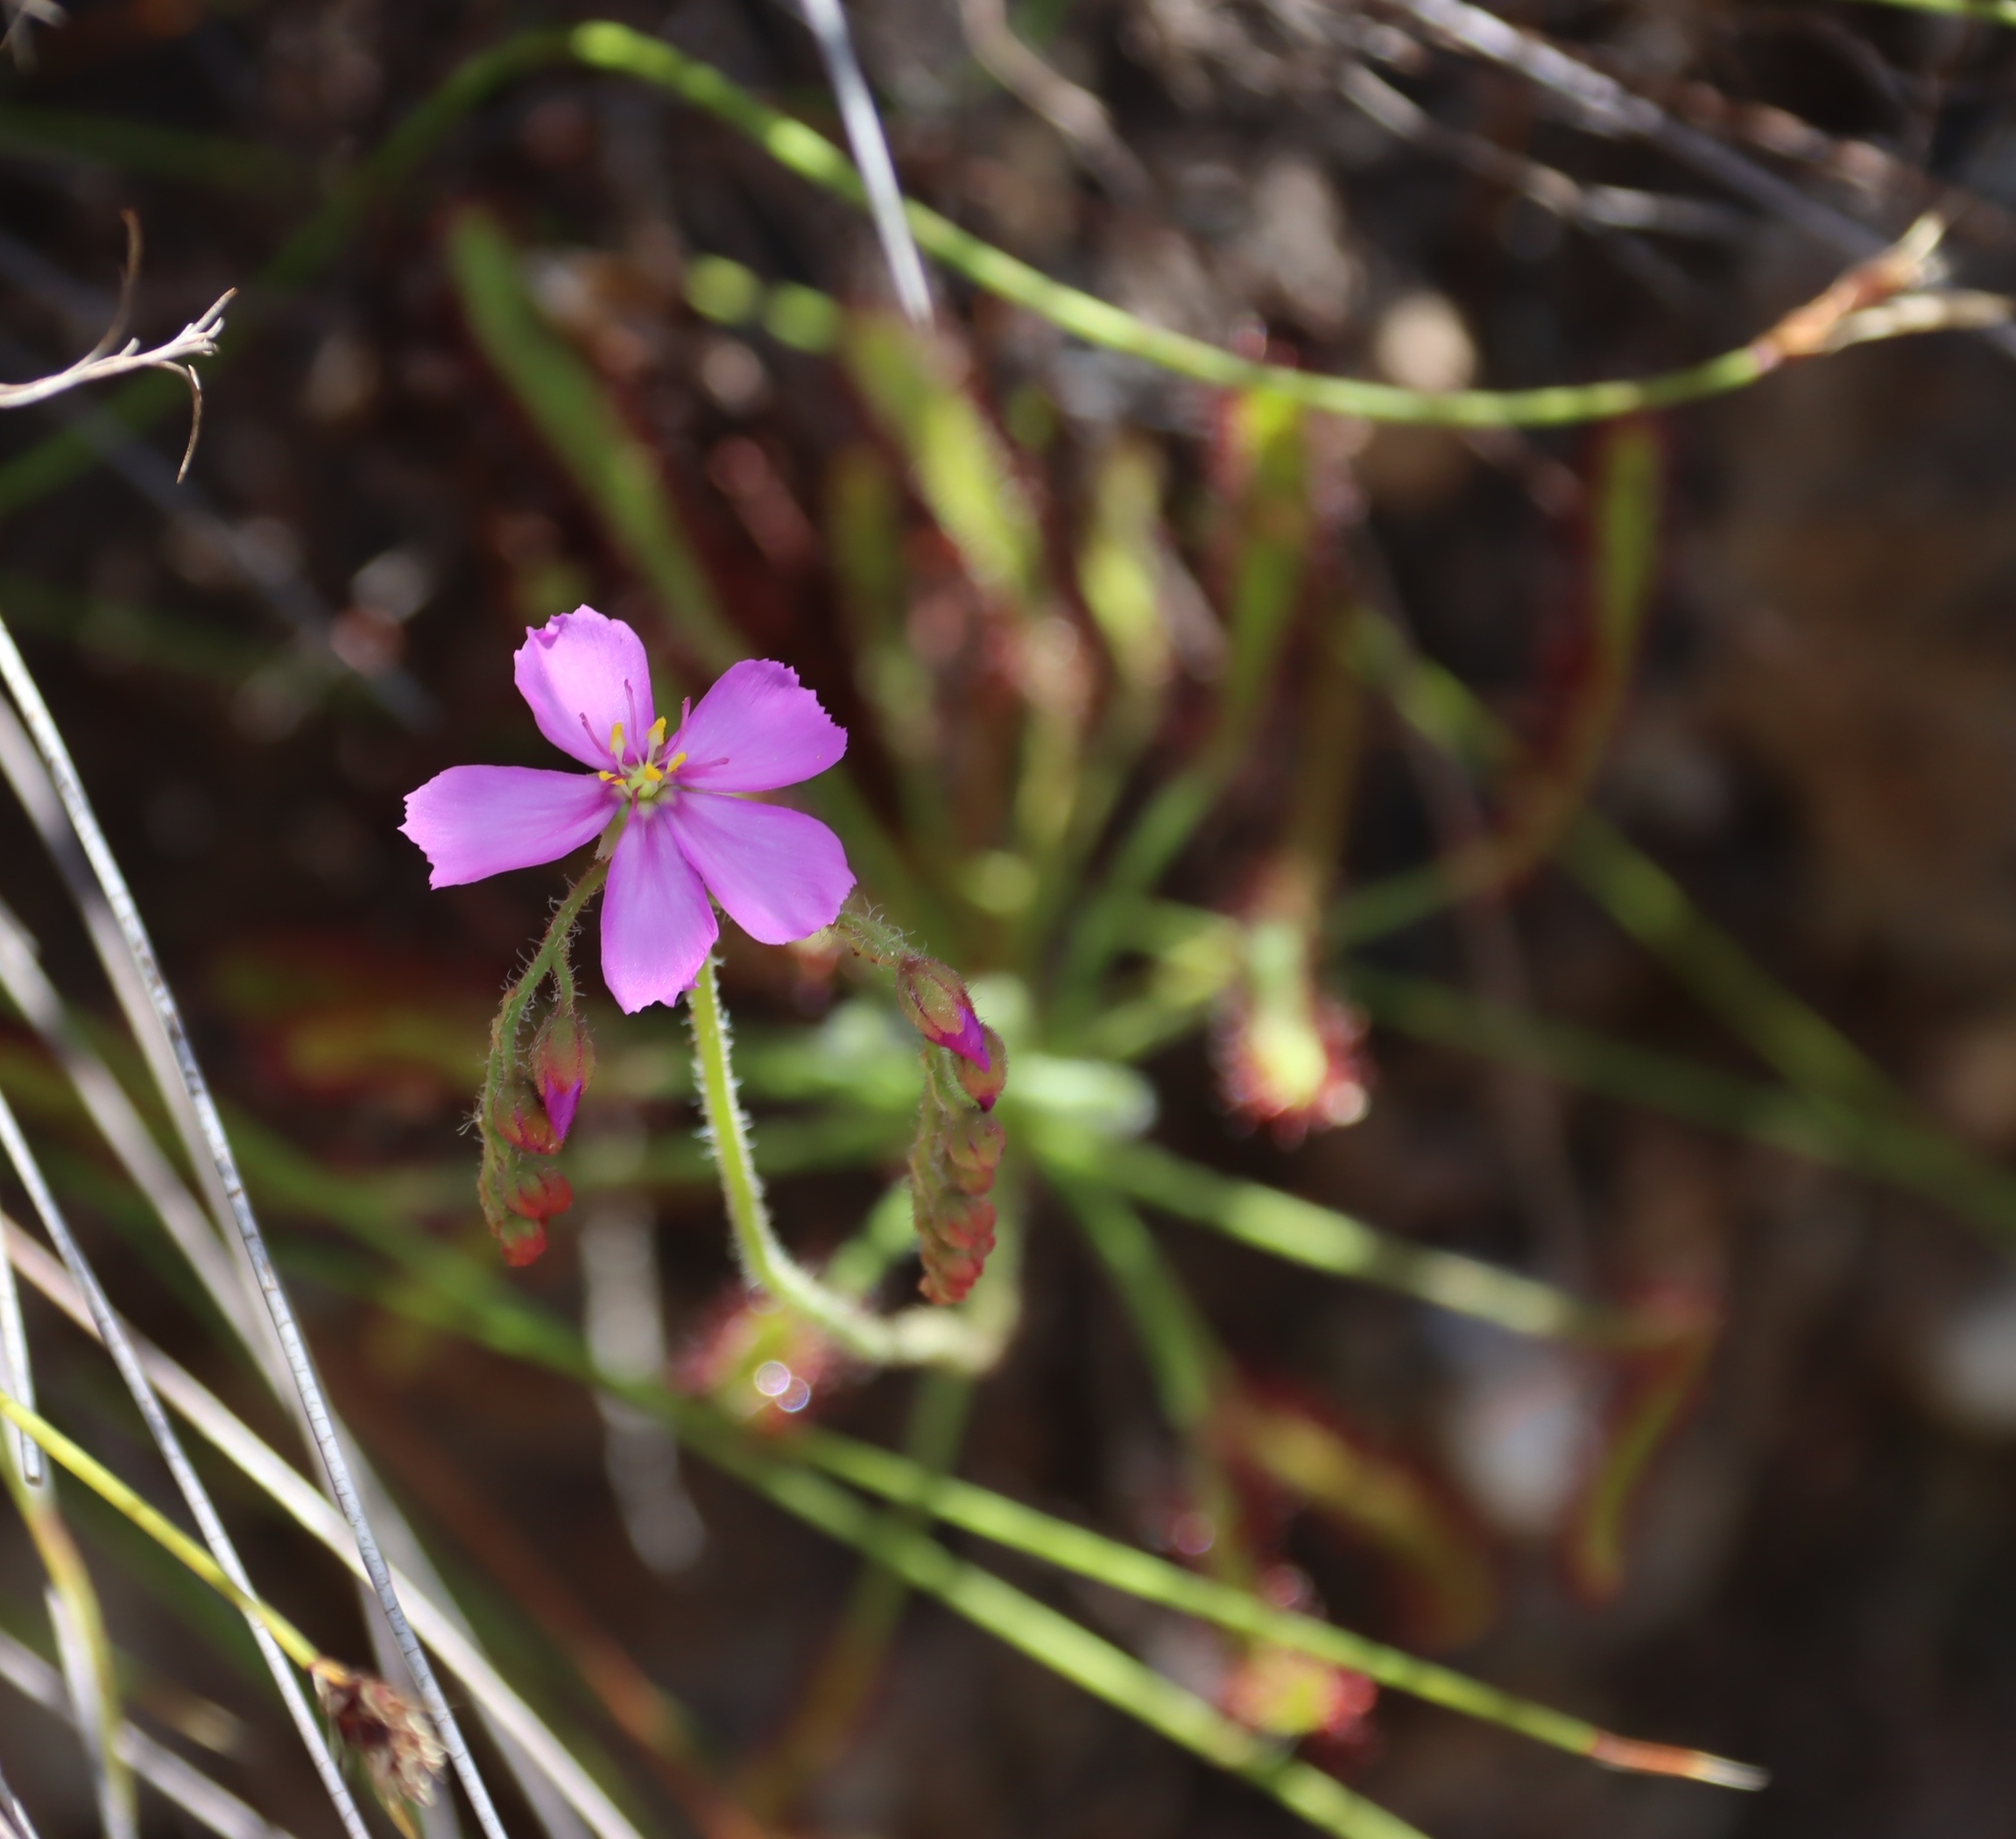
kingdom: Plantae
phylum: Tracheophyta
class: Magnoliopsida
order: Caryophyllales
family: Droseraceae
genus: Drosera
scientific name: Drosera capensis
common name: Cape sundew
